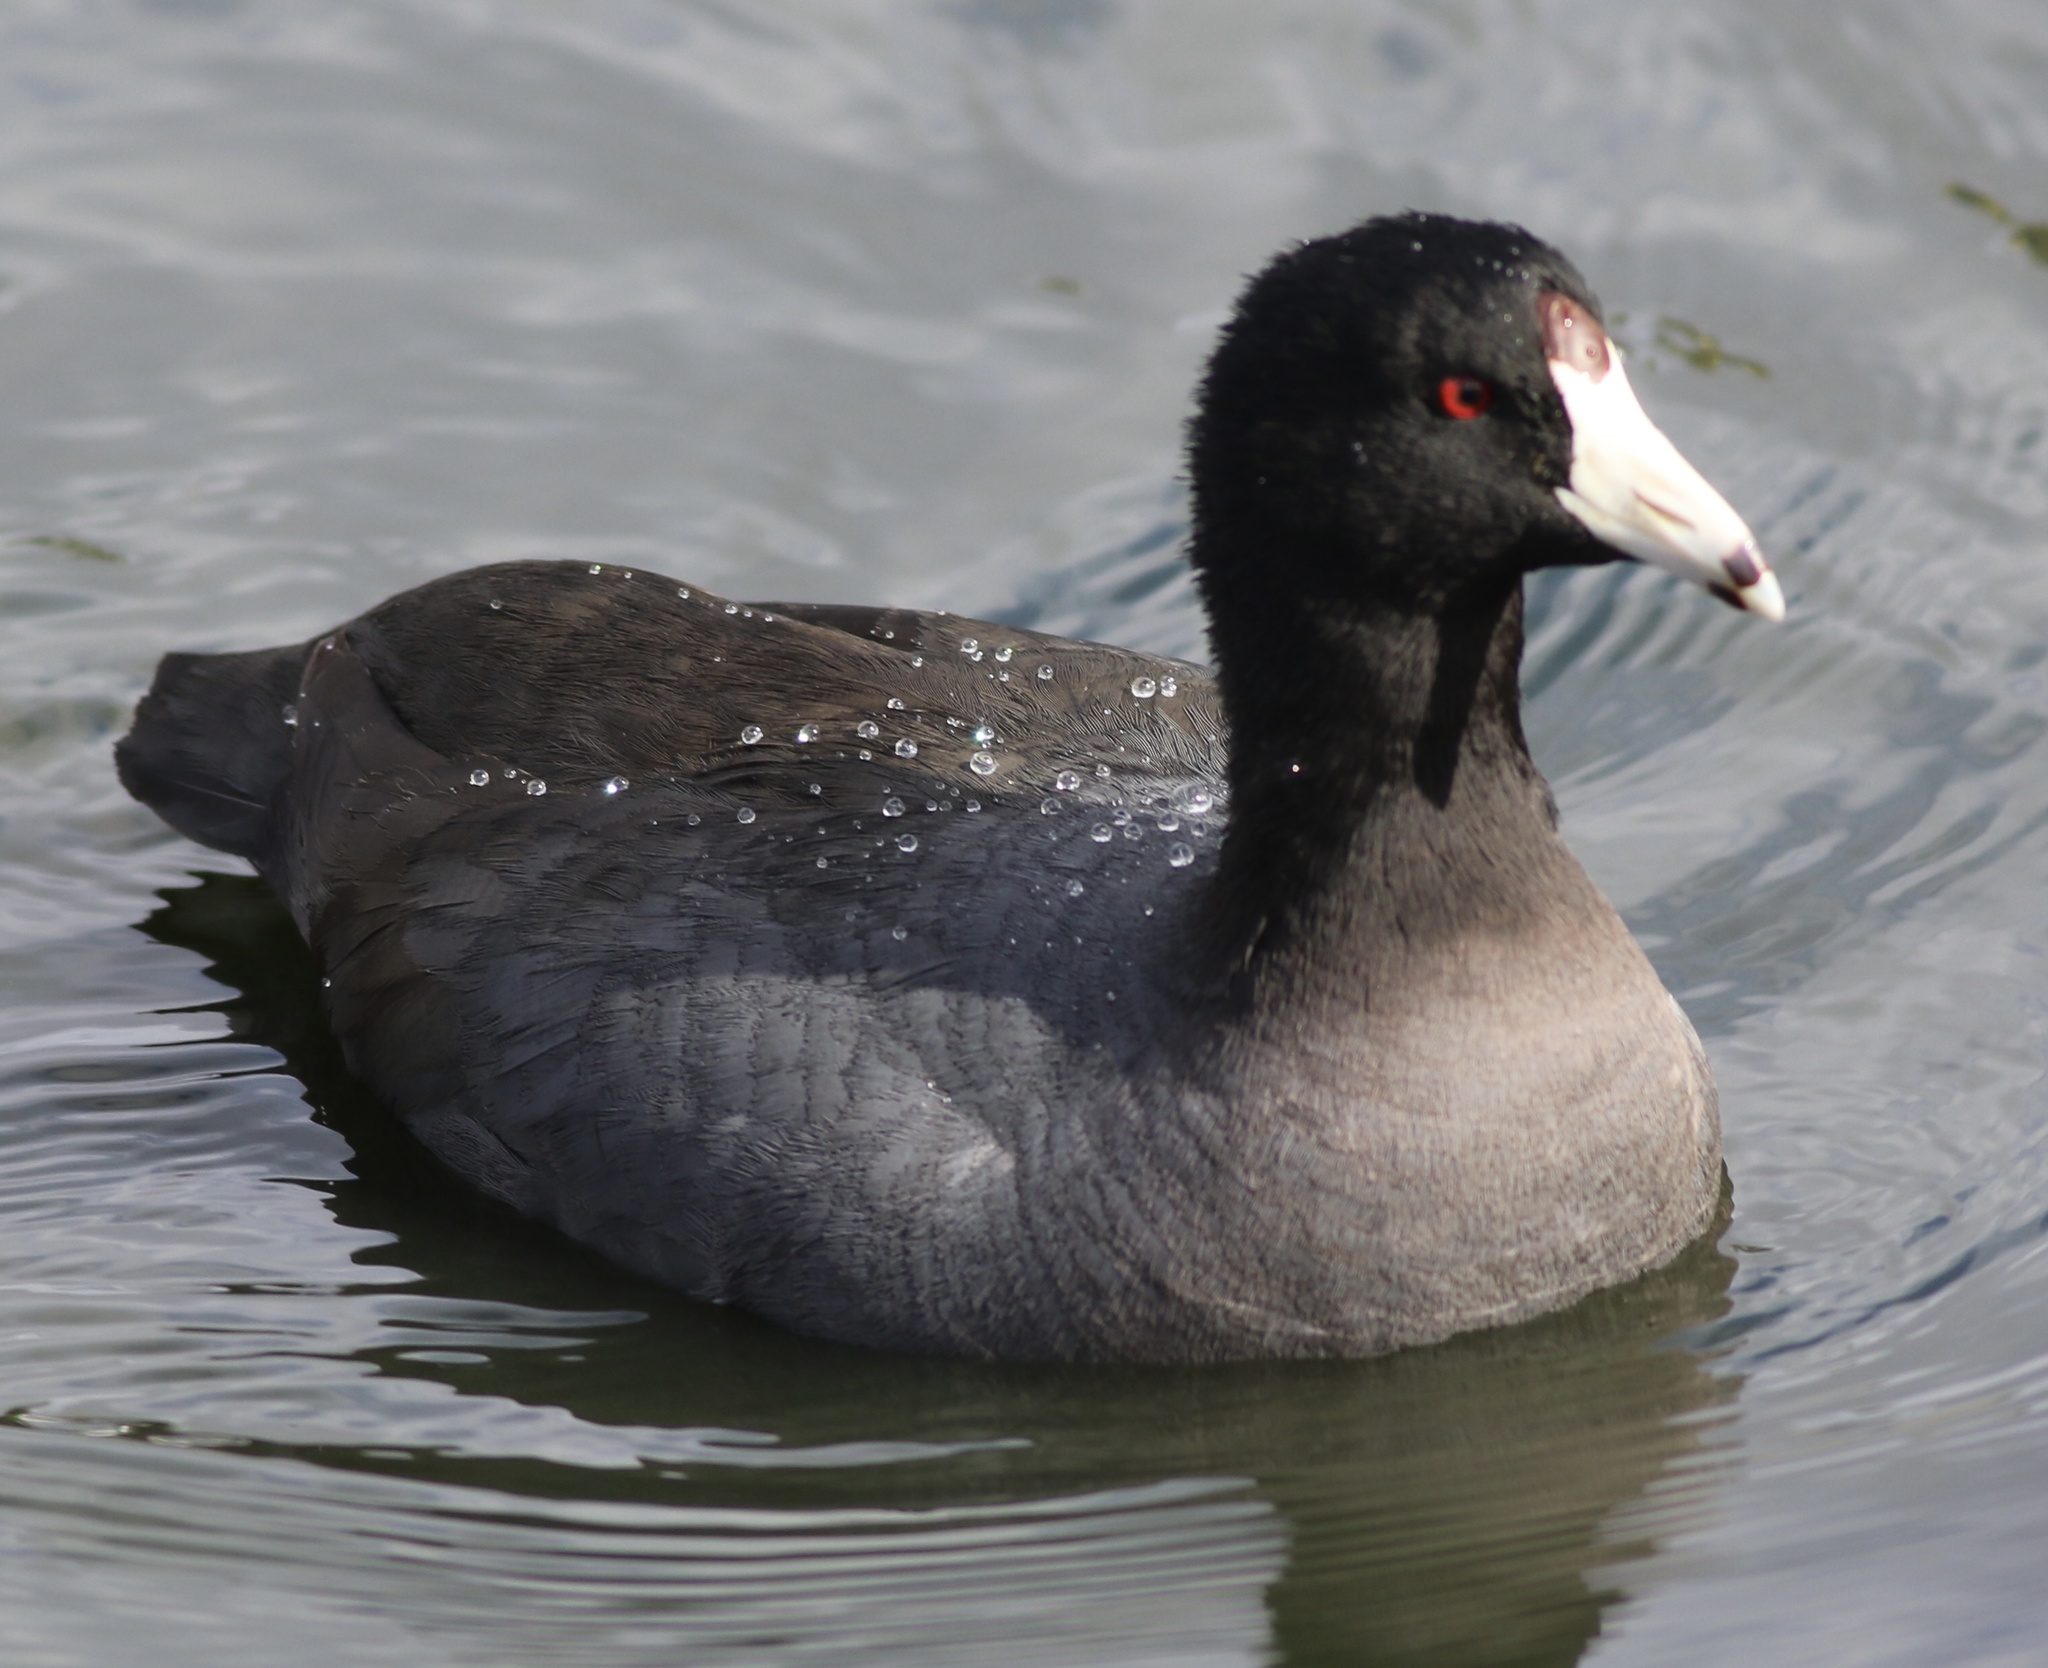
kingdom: Animalia
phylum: Chordata
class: Aves
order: Gruiformes
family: Rallidae
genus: Fulica
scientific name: Fulica americana
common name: American coot
